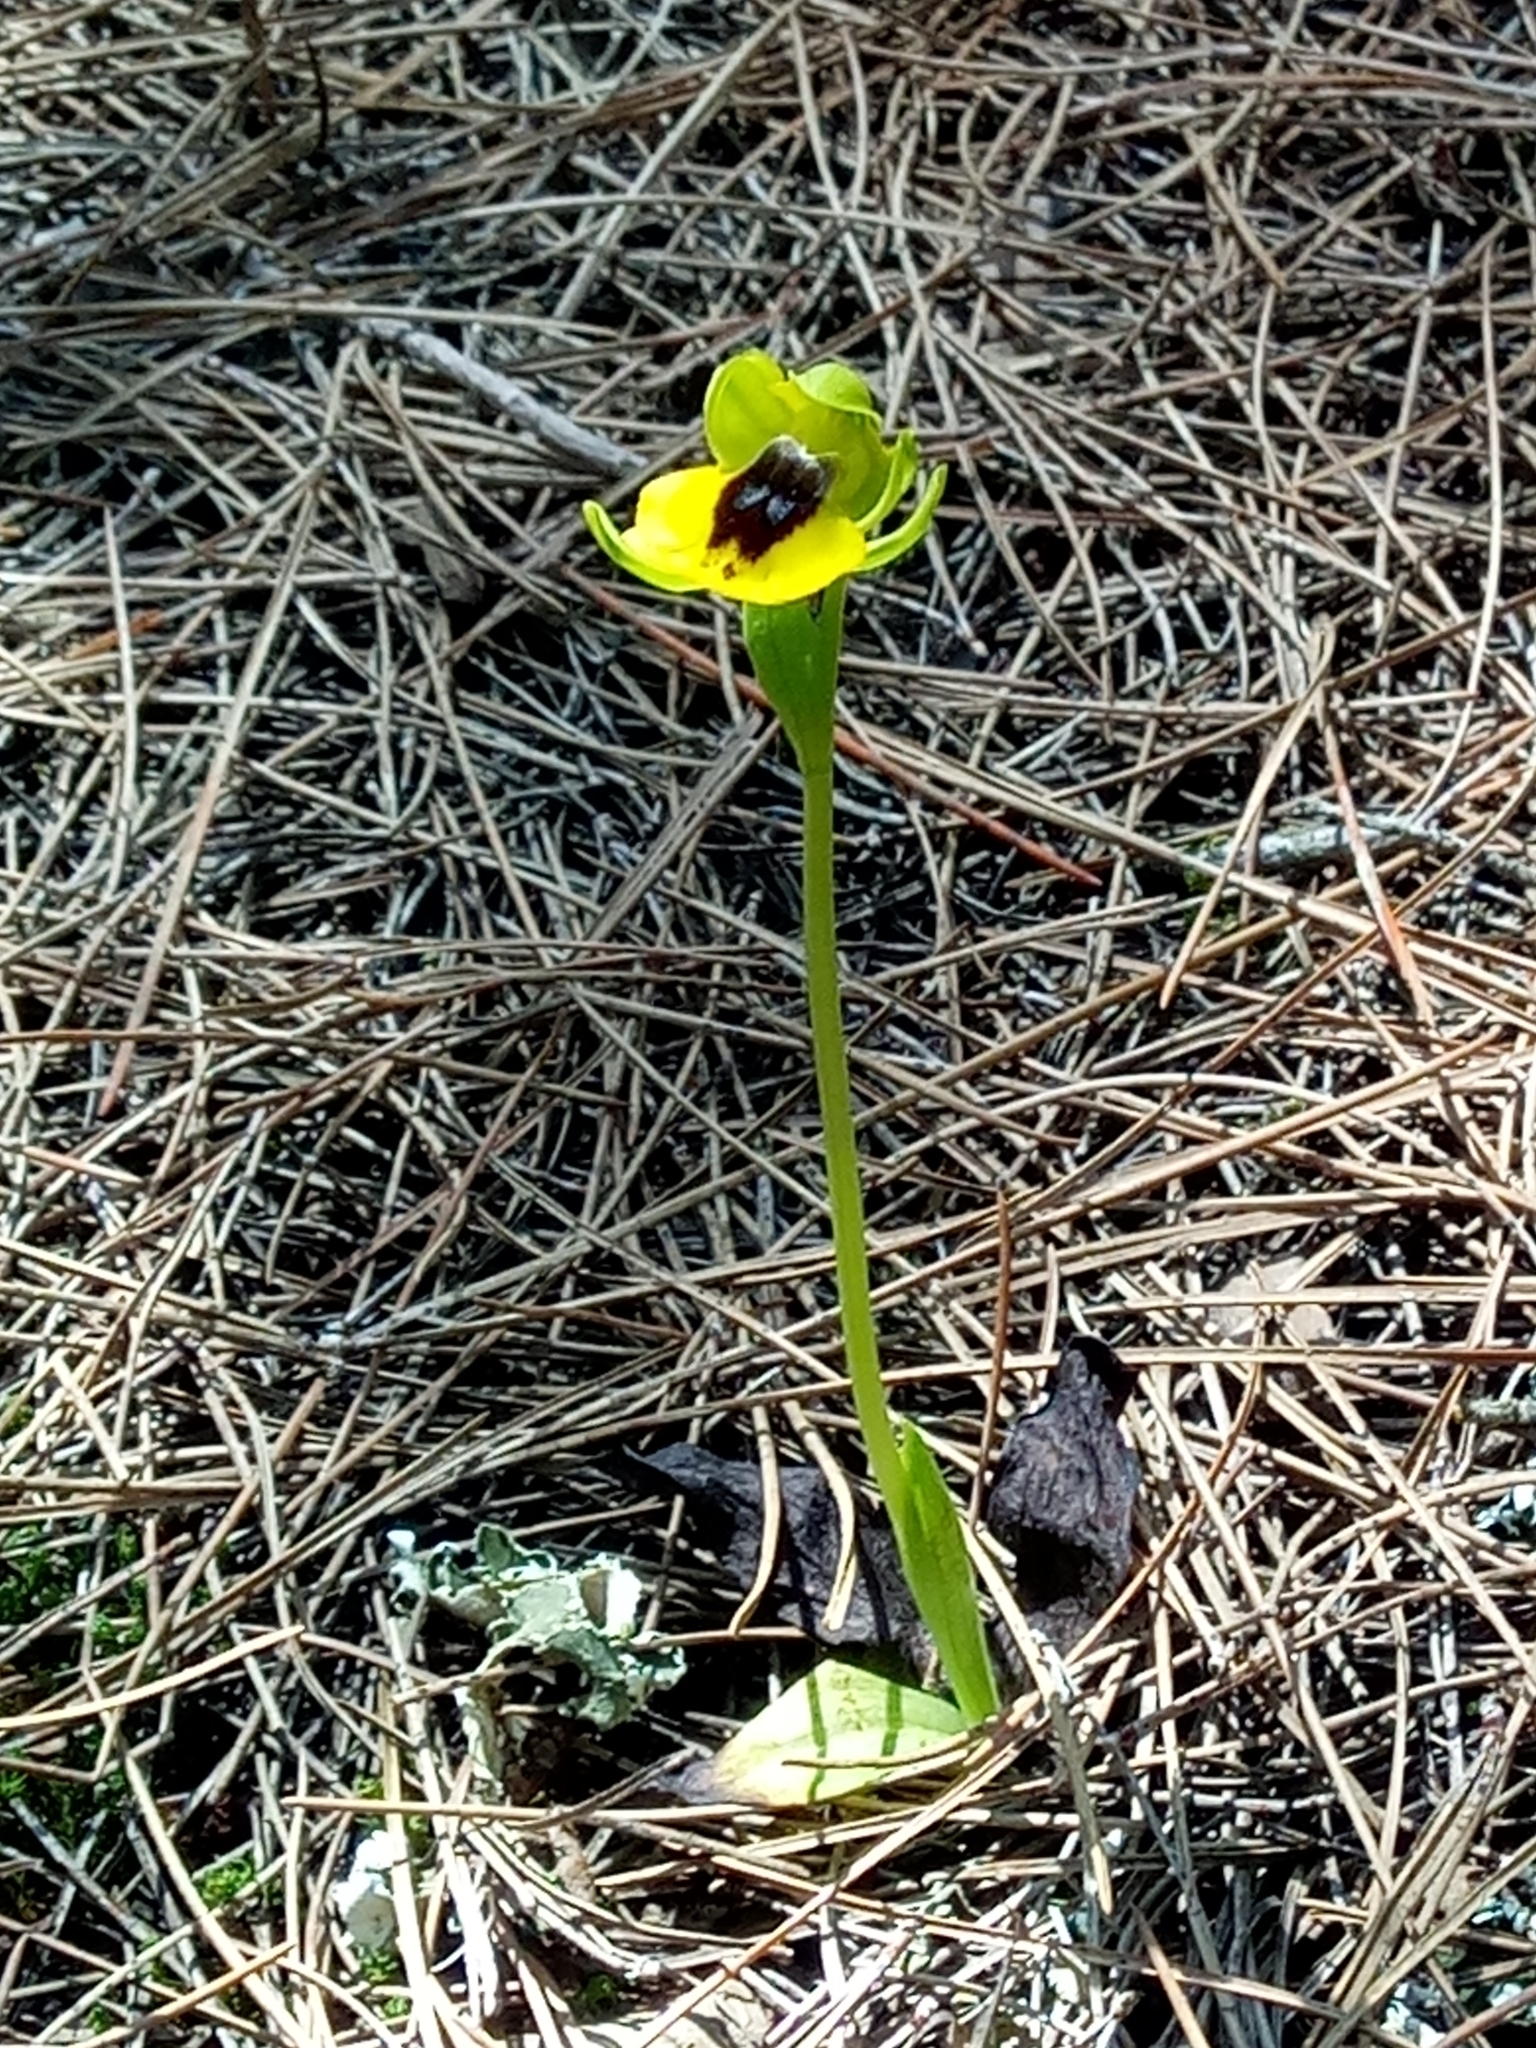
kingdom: Plantae
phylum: Tracheophyta
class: Liliopsida
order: Asparagales
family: Orchidaceae
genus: Ophrys
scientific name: Ophrys lutea
